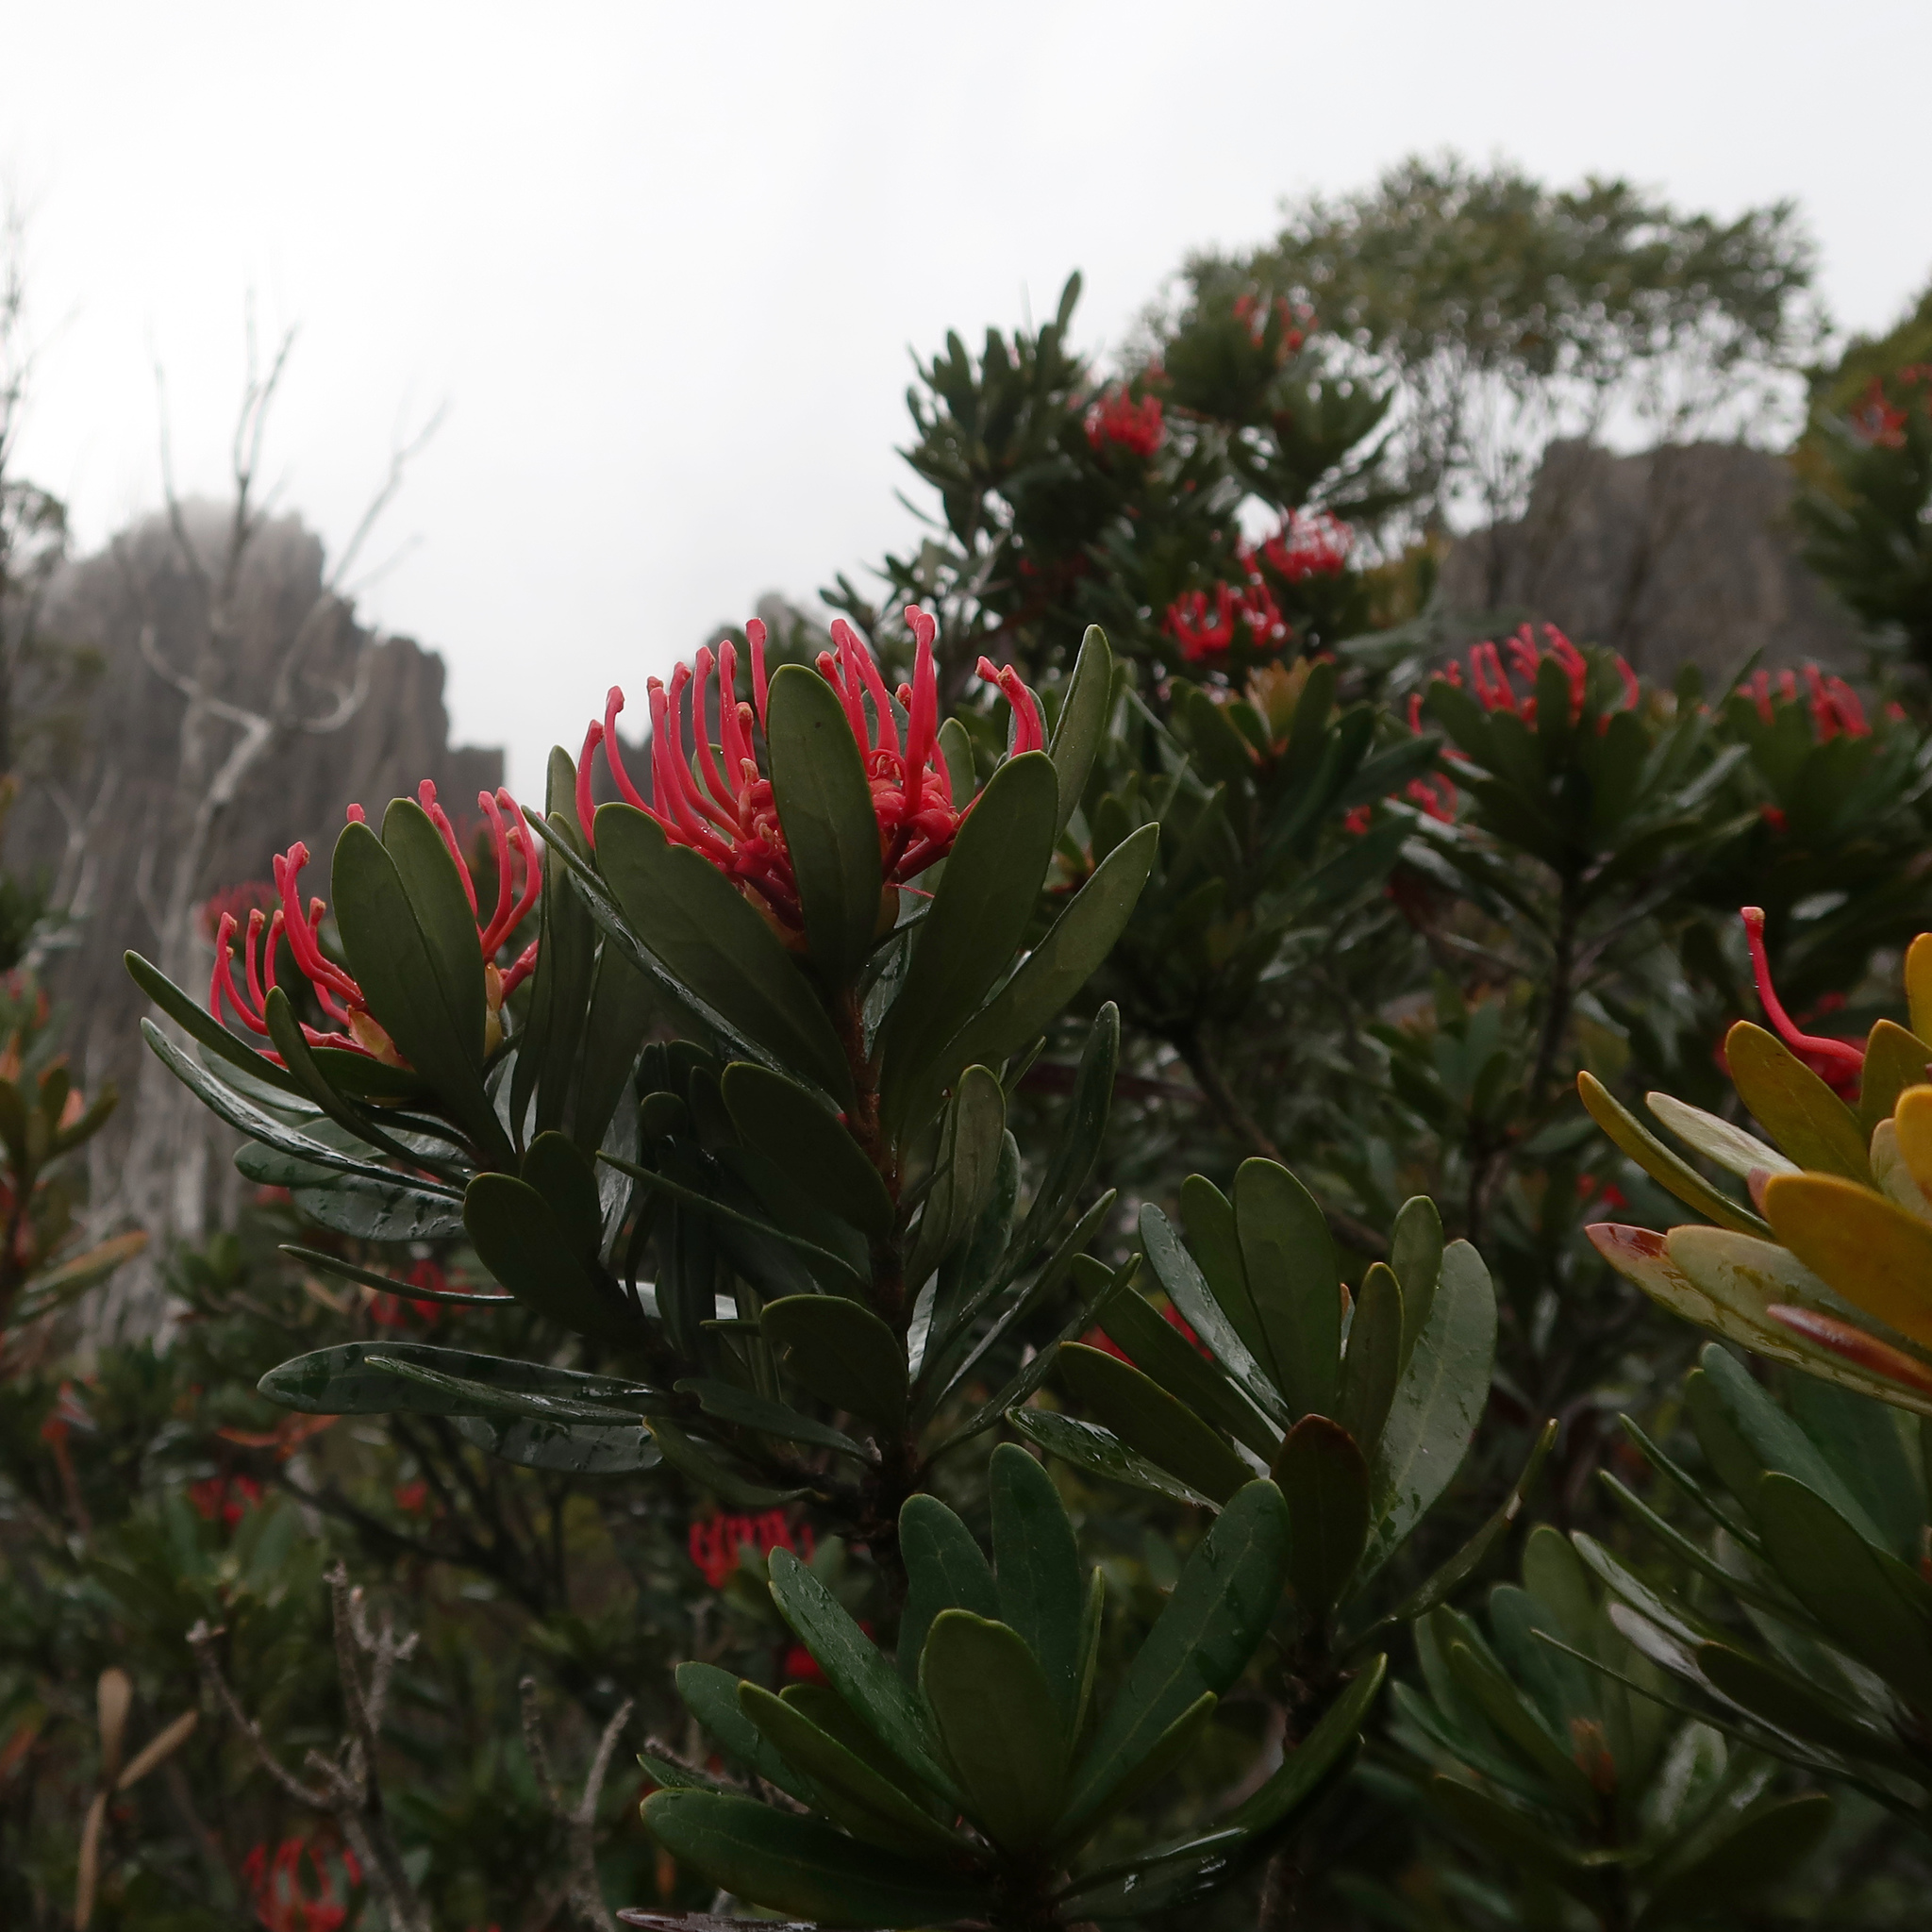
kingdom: Plantae
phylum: Tracheophyta
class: Magnoliopsida
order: Proteales
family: Proteaceae
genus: Telopea
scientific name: Telopea truncata
